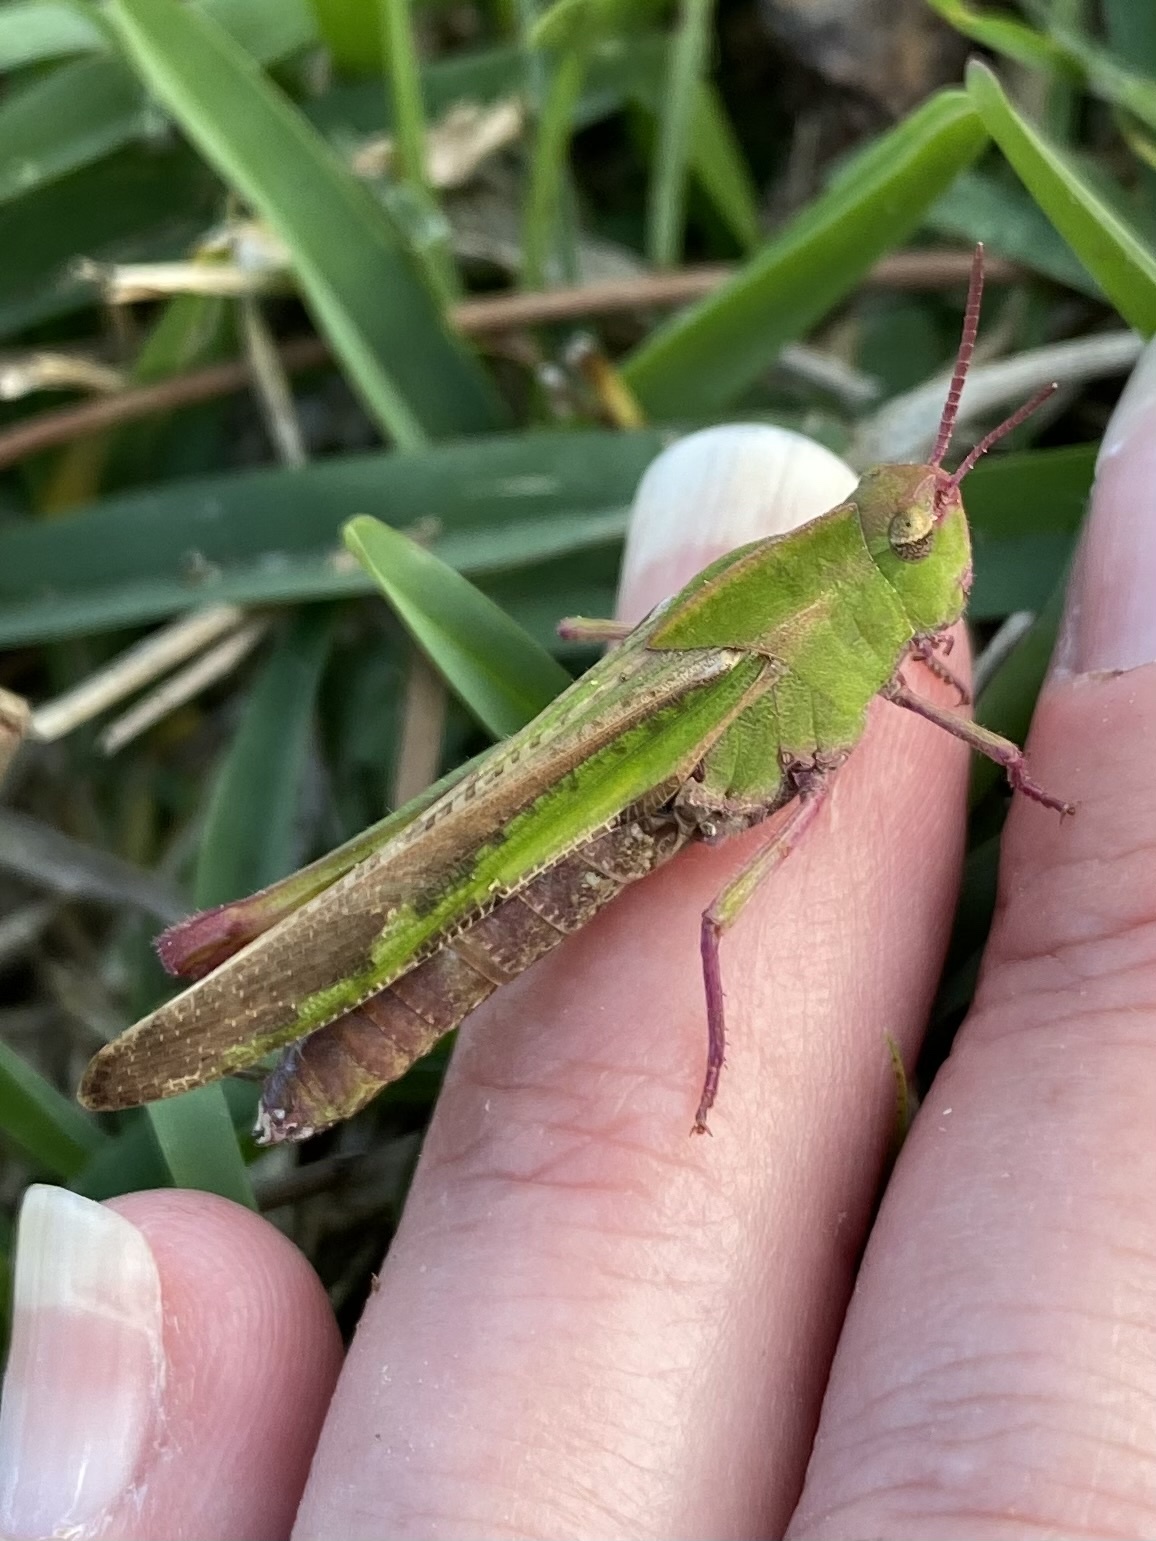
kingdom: Animalia
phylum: Arthropoda
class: Insecta
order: Orthoptera
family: Acrididae
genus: Chortophaga
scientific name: Chortophaga viridifasciata
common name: Green-striped grasshopper
